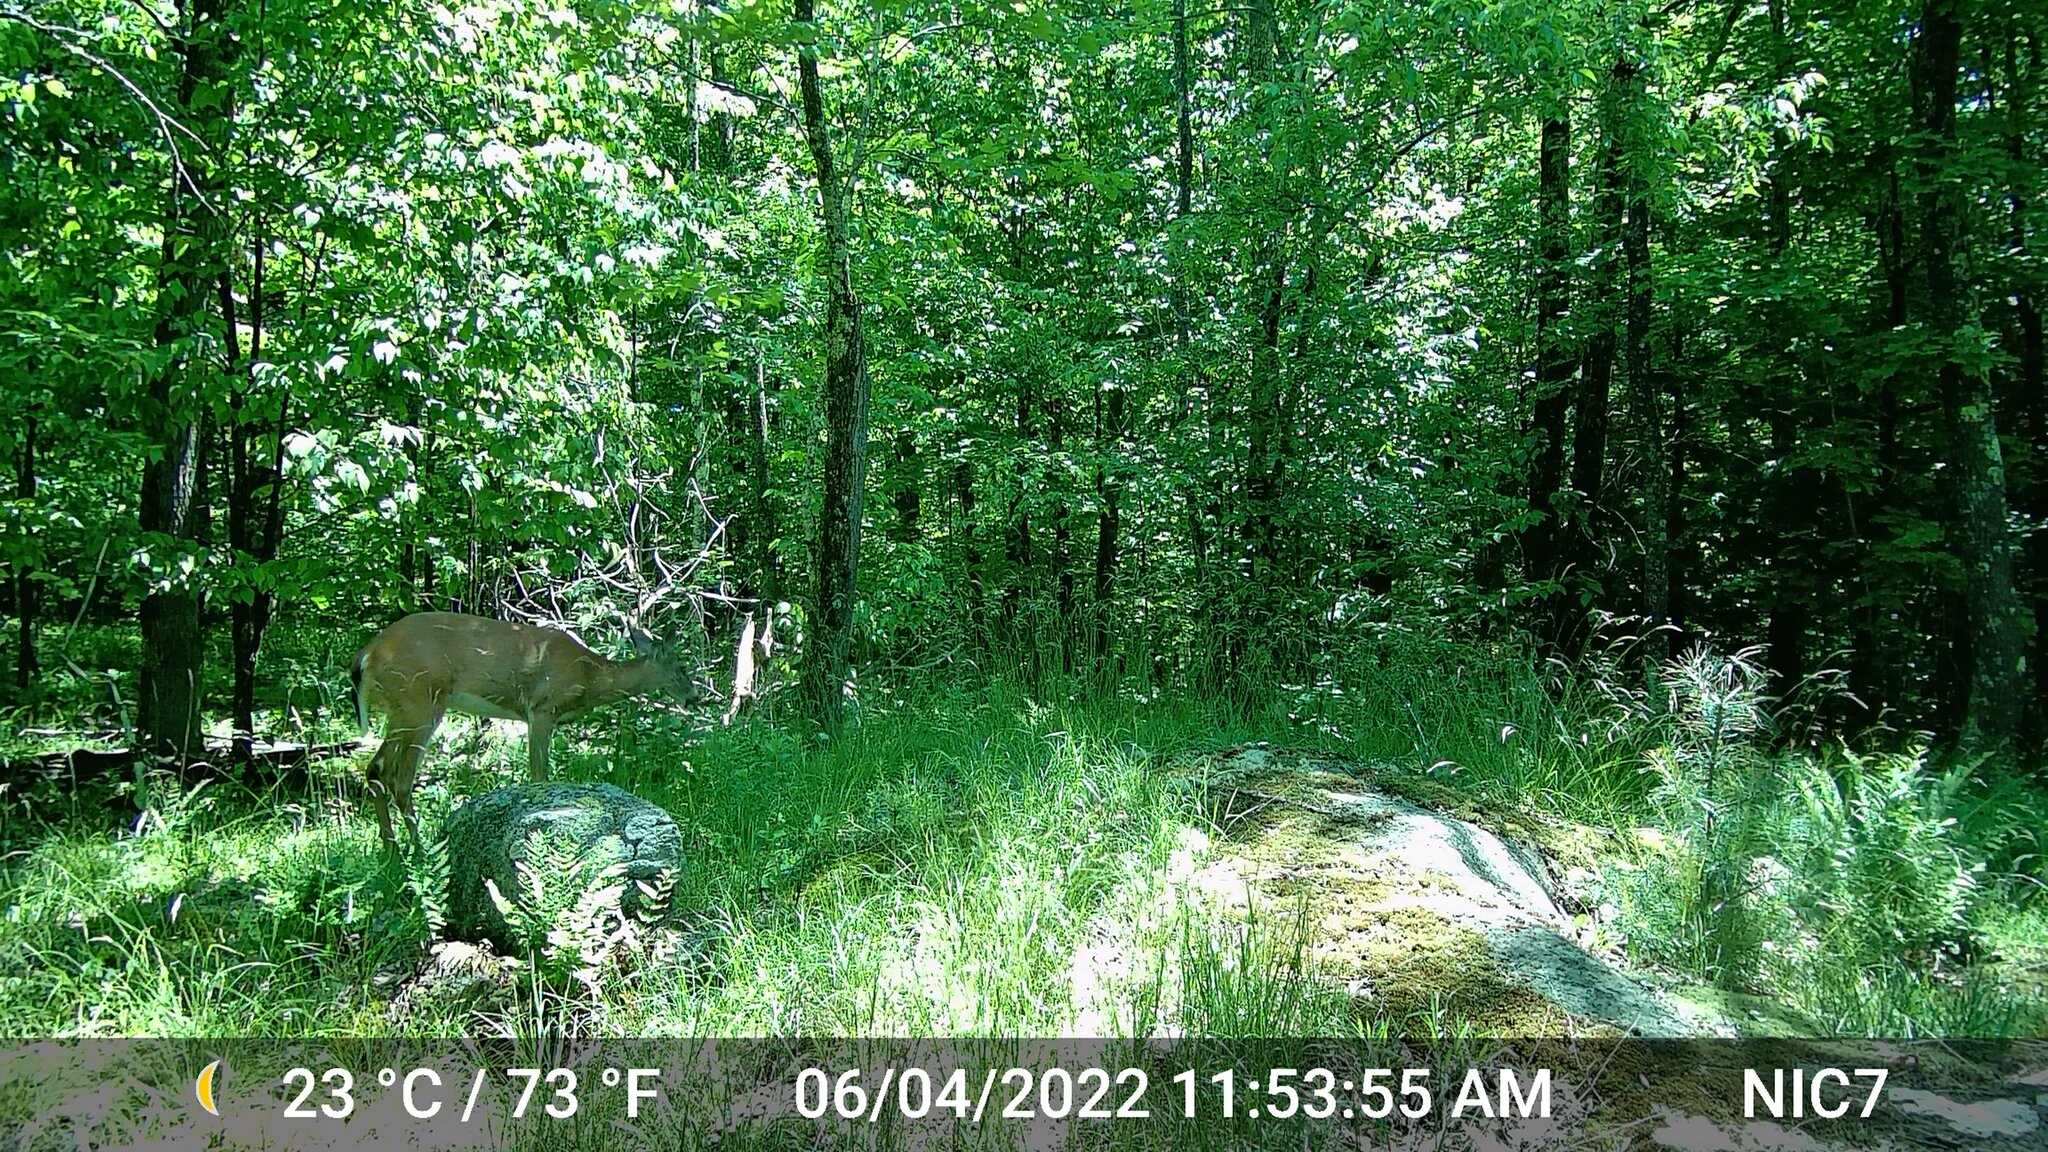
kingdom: Animalia
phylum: Chordata
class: Mammalia
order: Artiodactyla
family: Cervidae
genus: Odocoileus
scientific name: Odocoileus virginianus
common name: White-tailed deer
